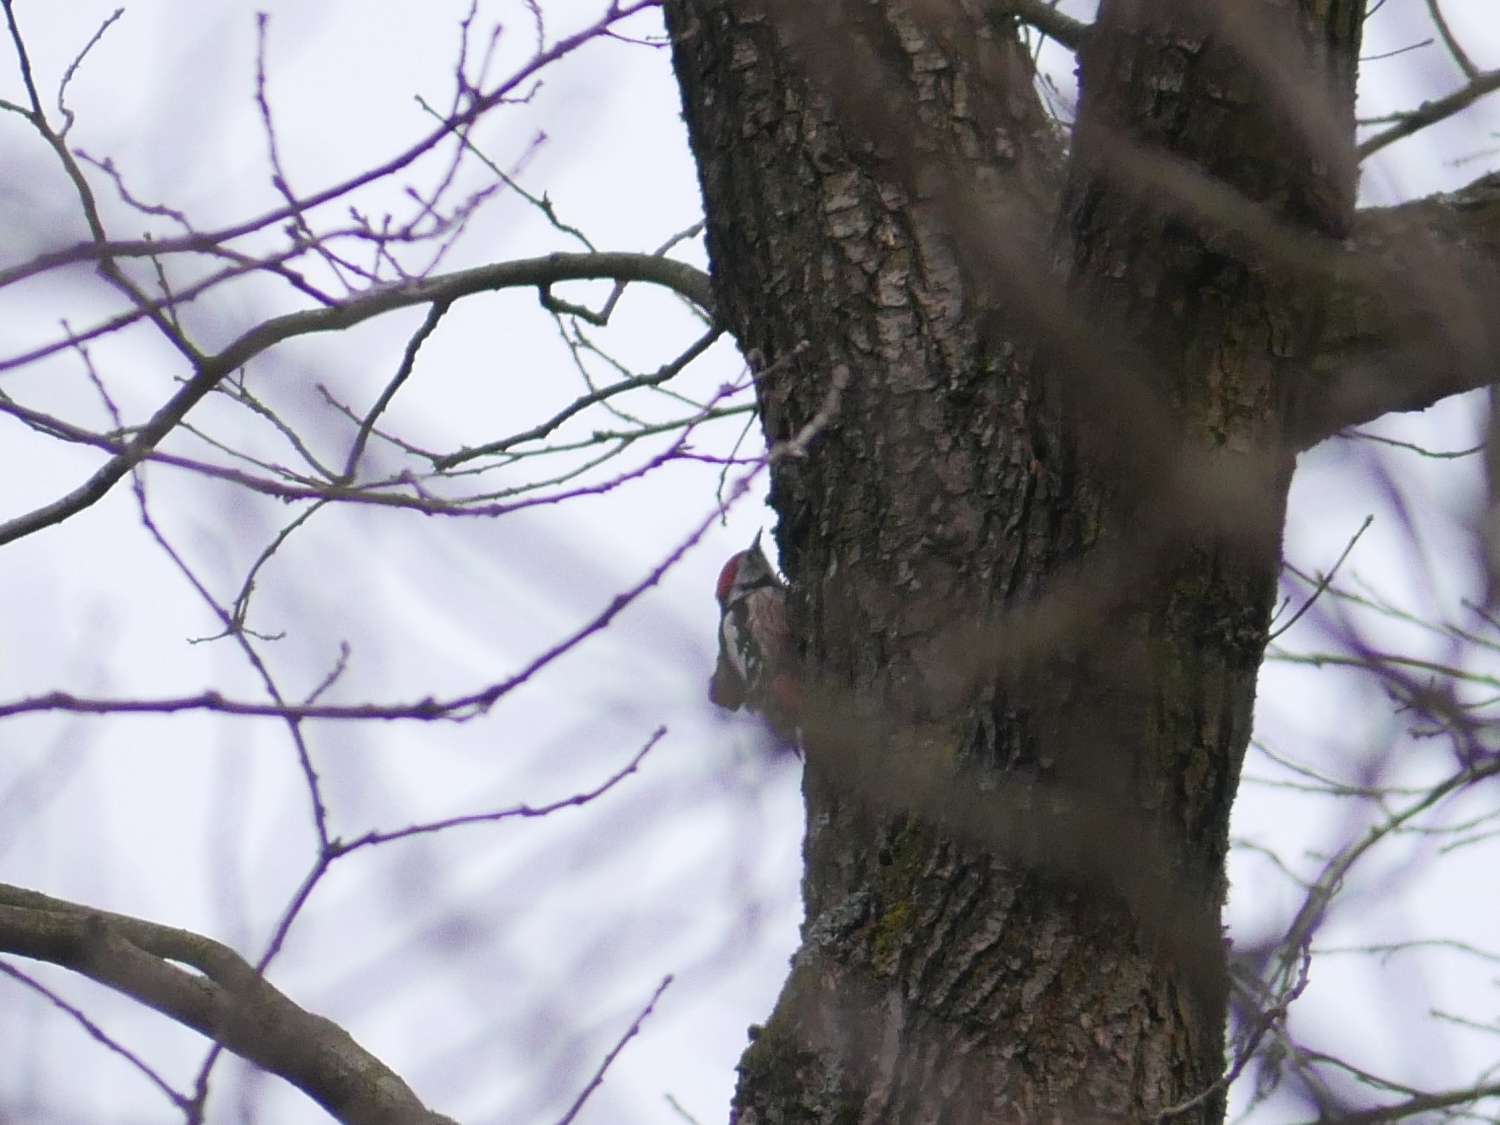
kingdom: Animalia
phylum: Chordata
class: Aves
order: Piciformes
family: Picidae
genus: Dendrocoptes
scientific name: Dendrocoptes medius
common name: Middle spotted woodpecker
